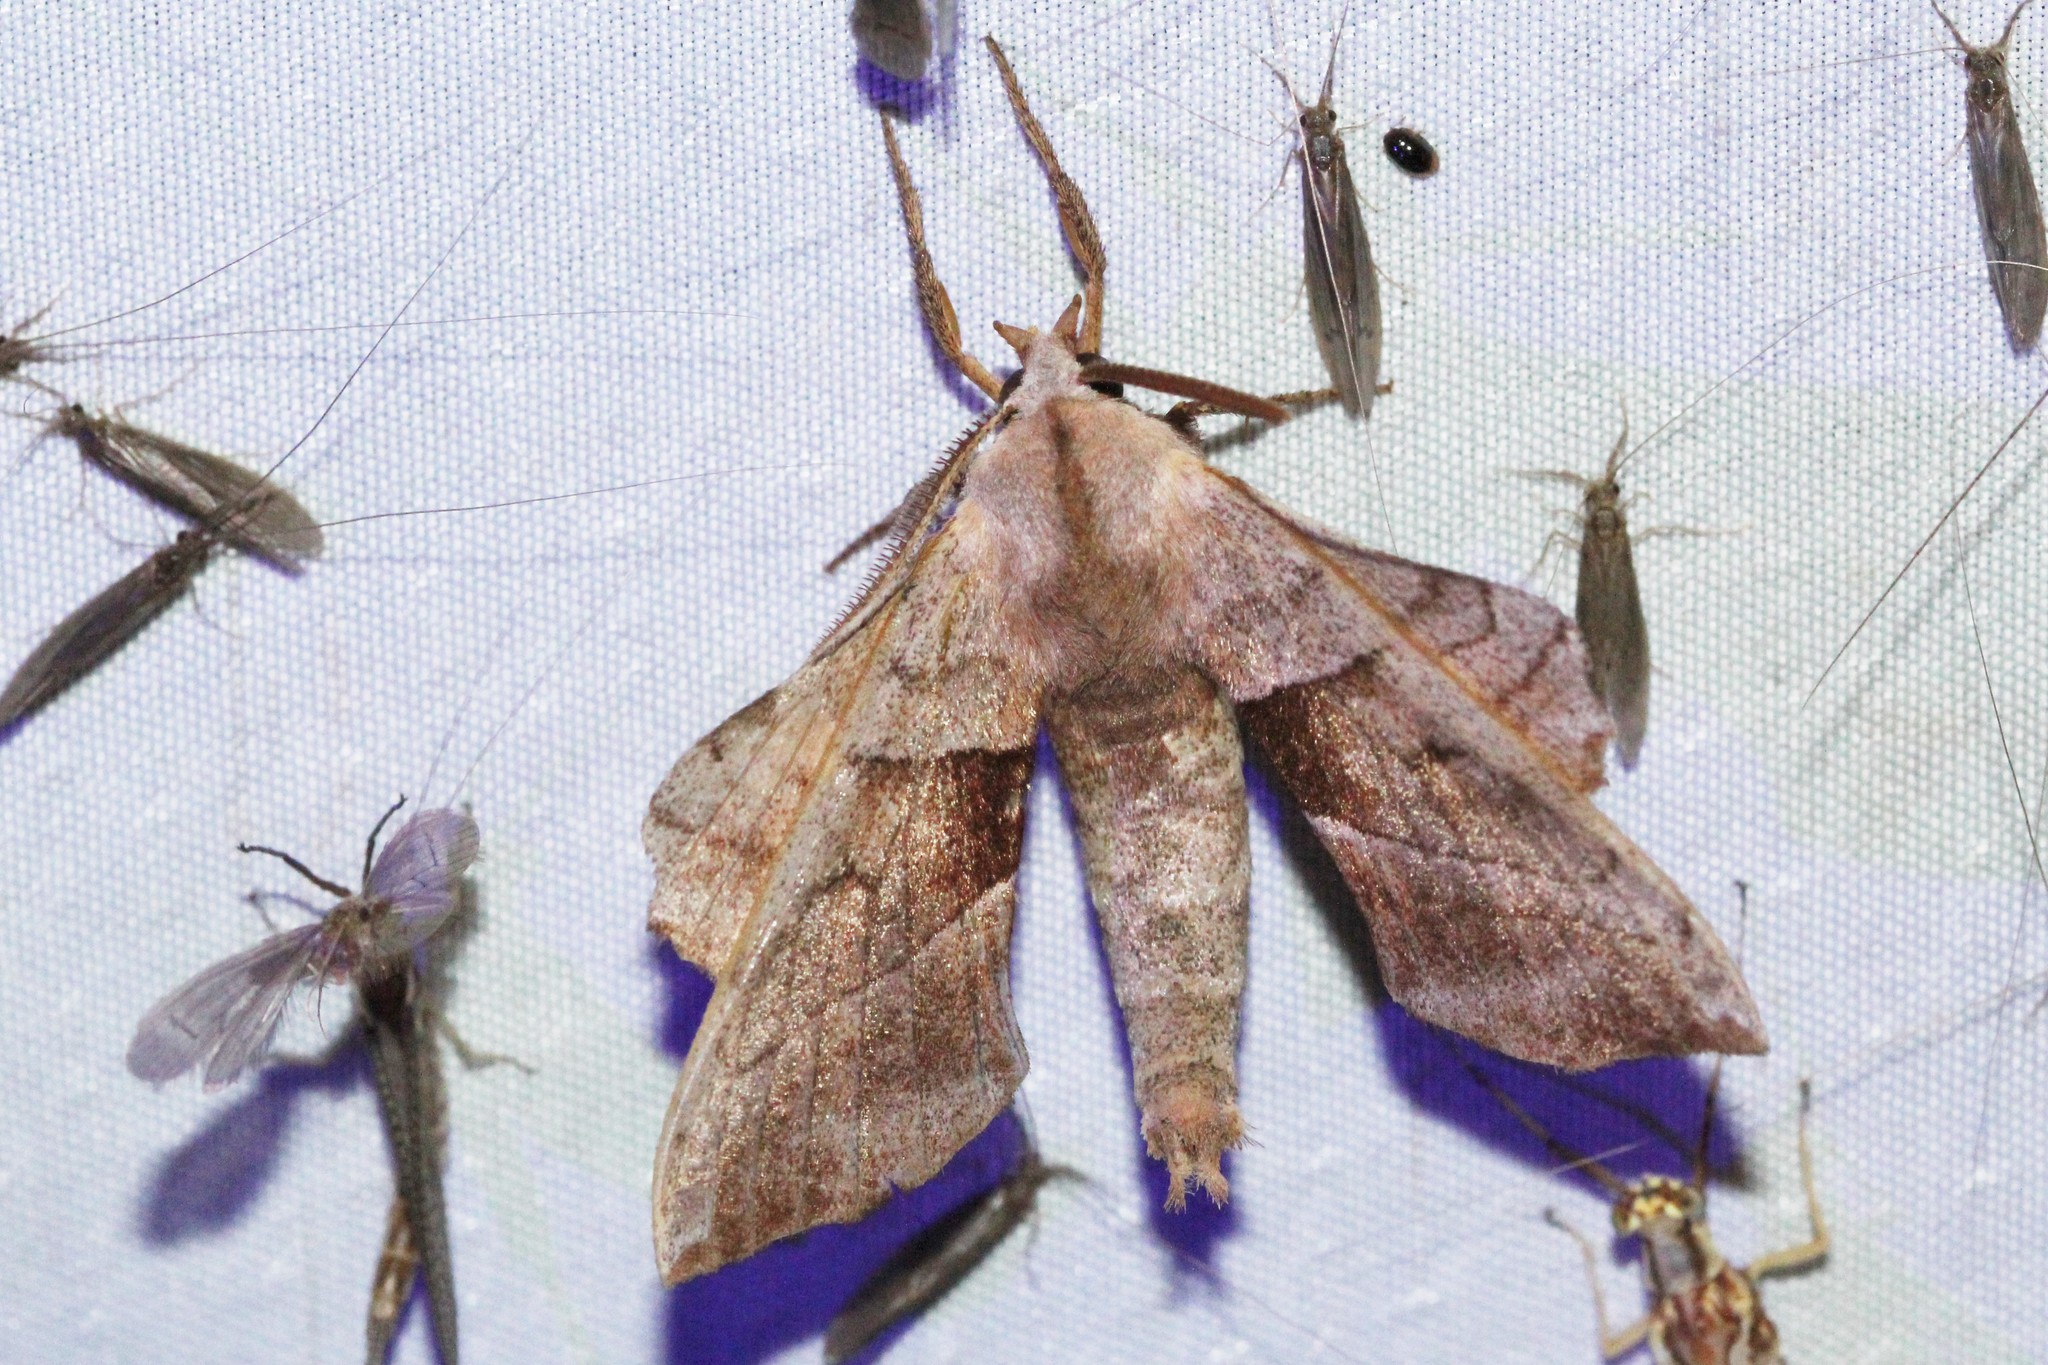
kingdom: Animalia
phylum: Arthropoda
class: Insecta
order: Lepidoptera
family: Sphingidae
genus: Amorpha
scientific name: Amorpha juglandis
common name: Walnut sphinx
